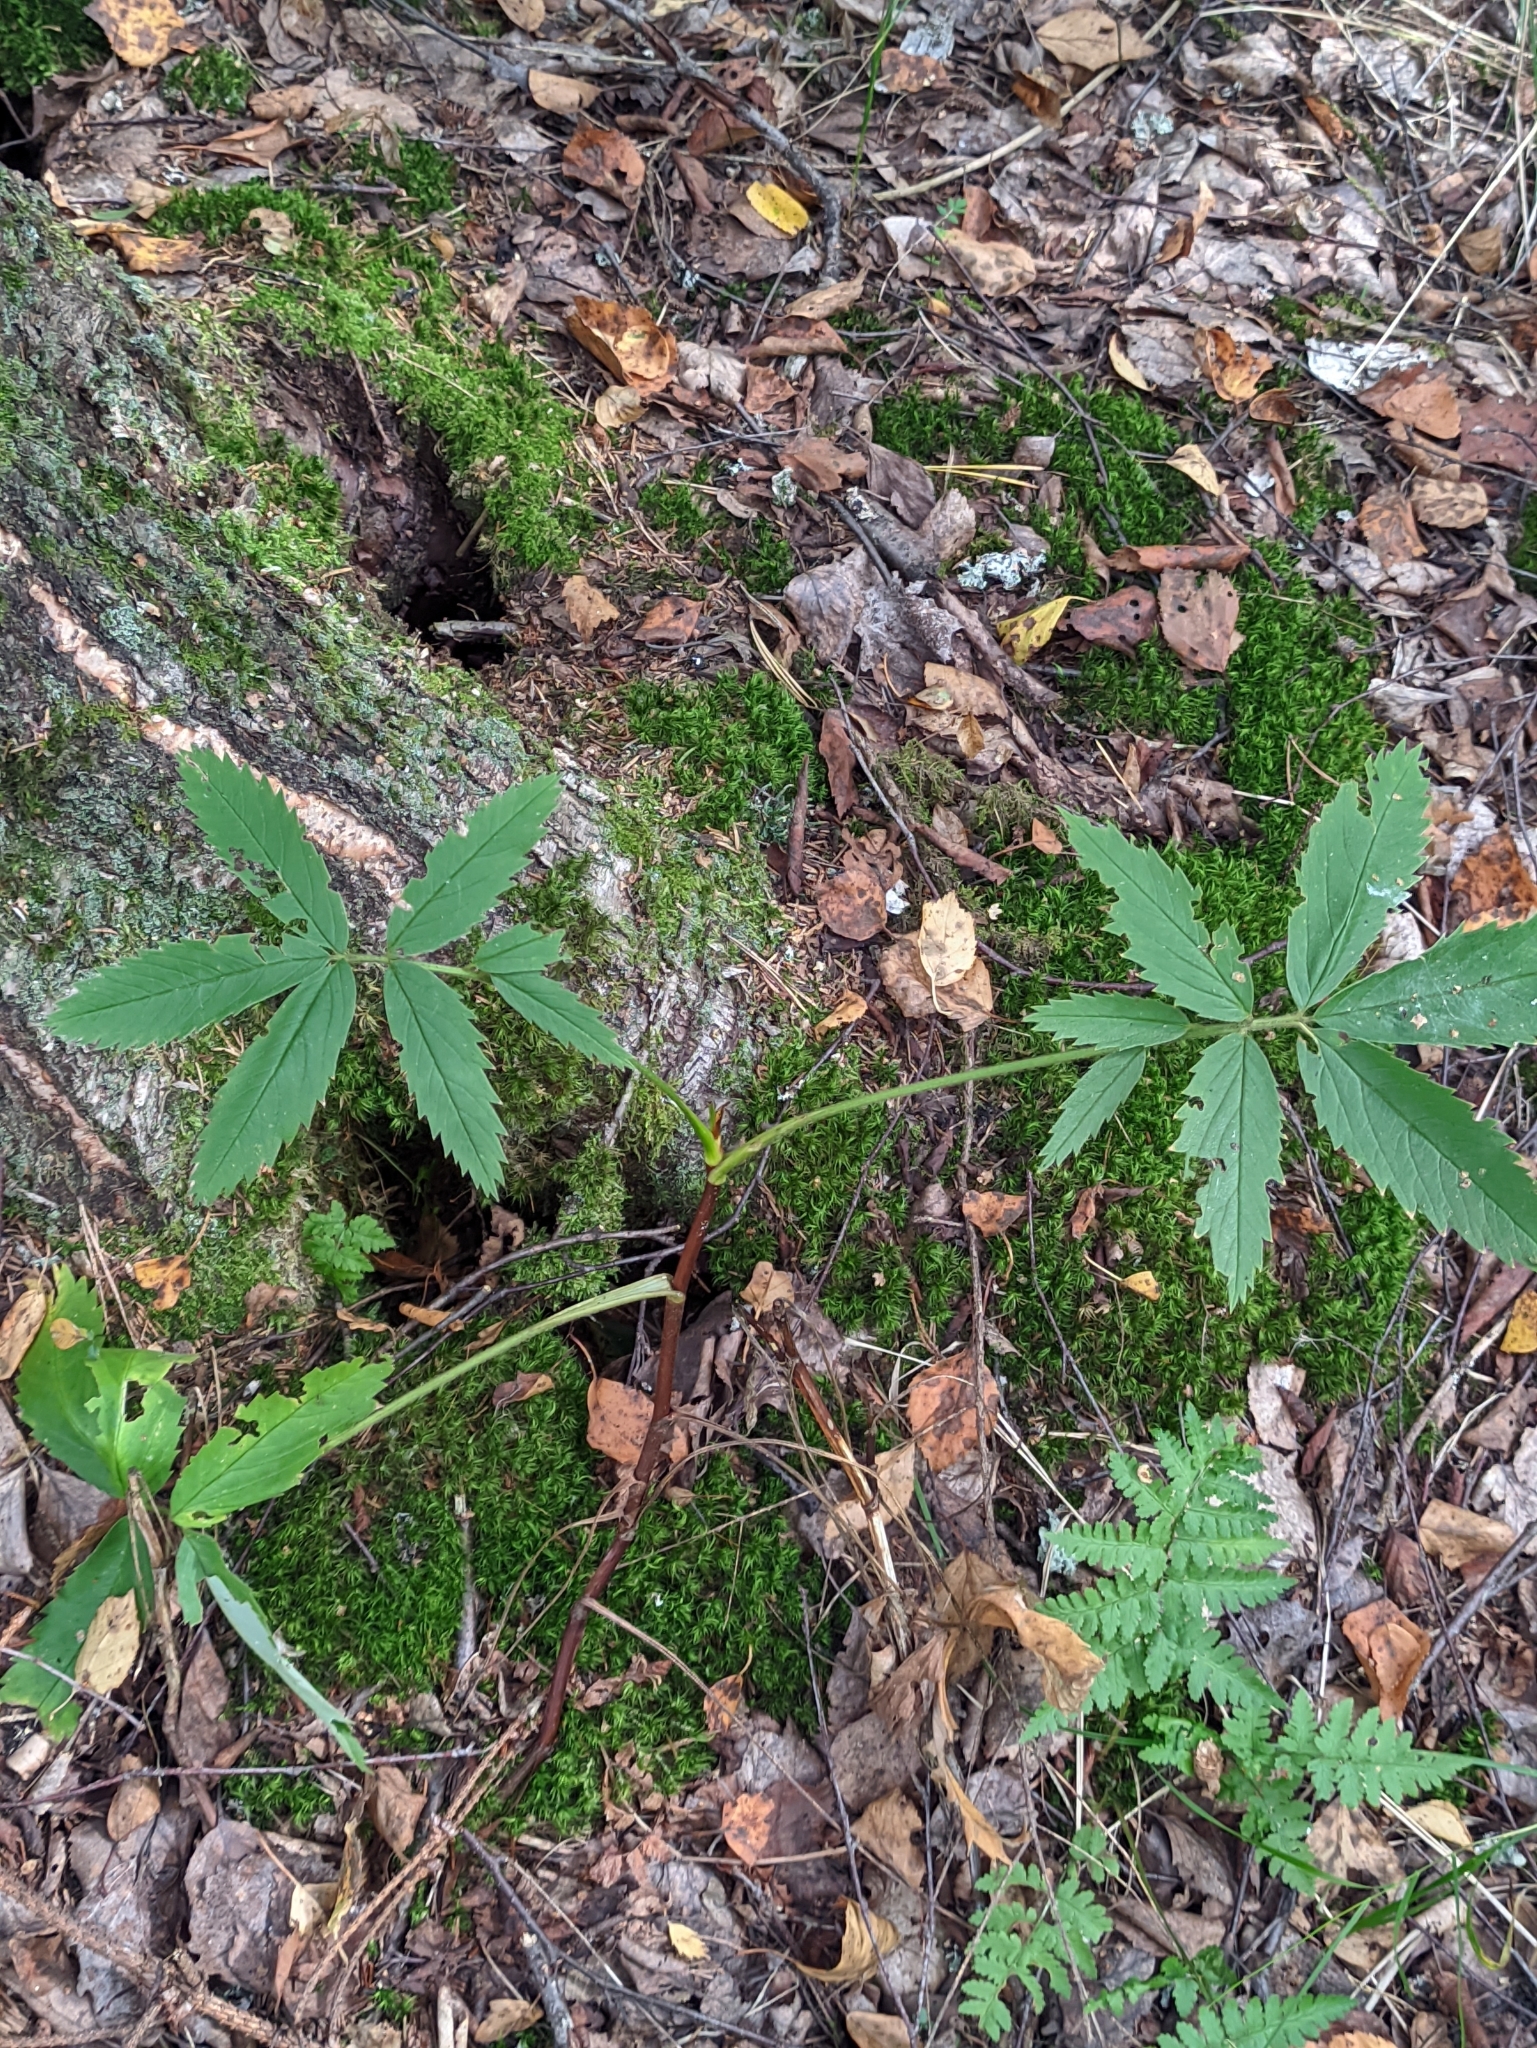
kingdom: Plantae
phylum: Tracheophyta
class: Magnoliopsida
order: Rosales
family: Rosaceae
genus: Comarum
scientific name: Comarum palustre
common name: Marsh cinquefoil
